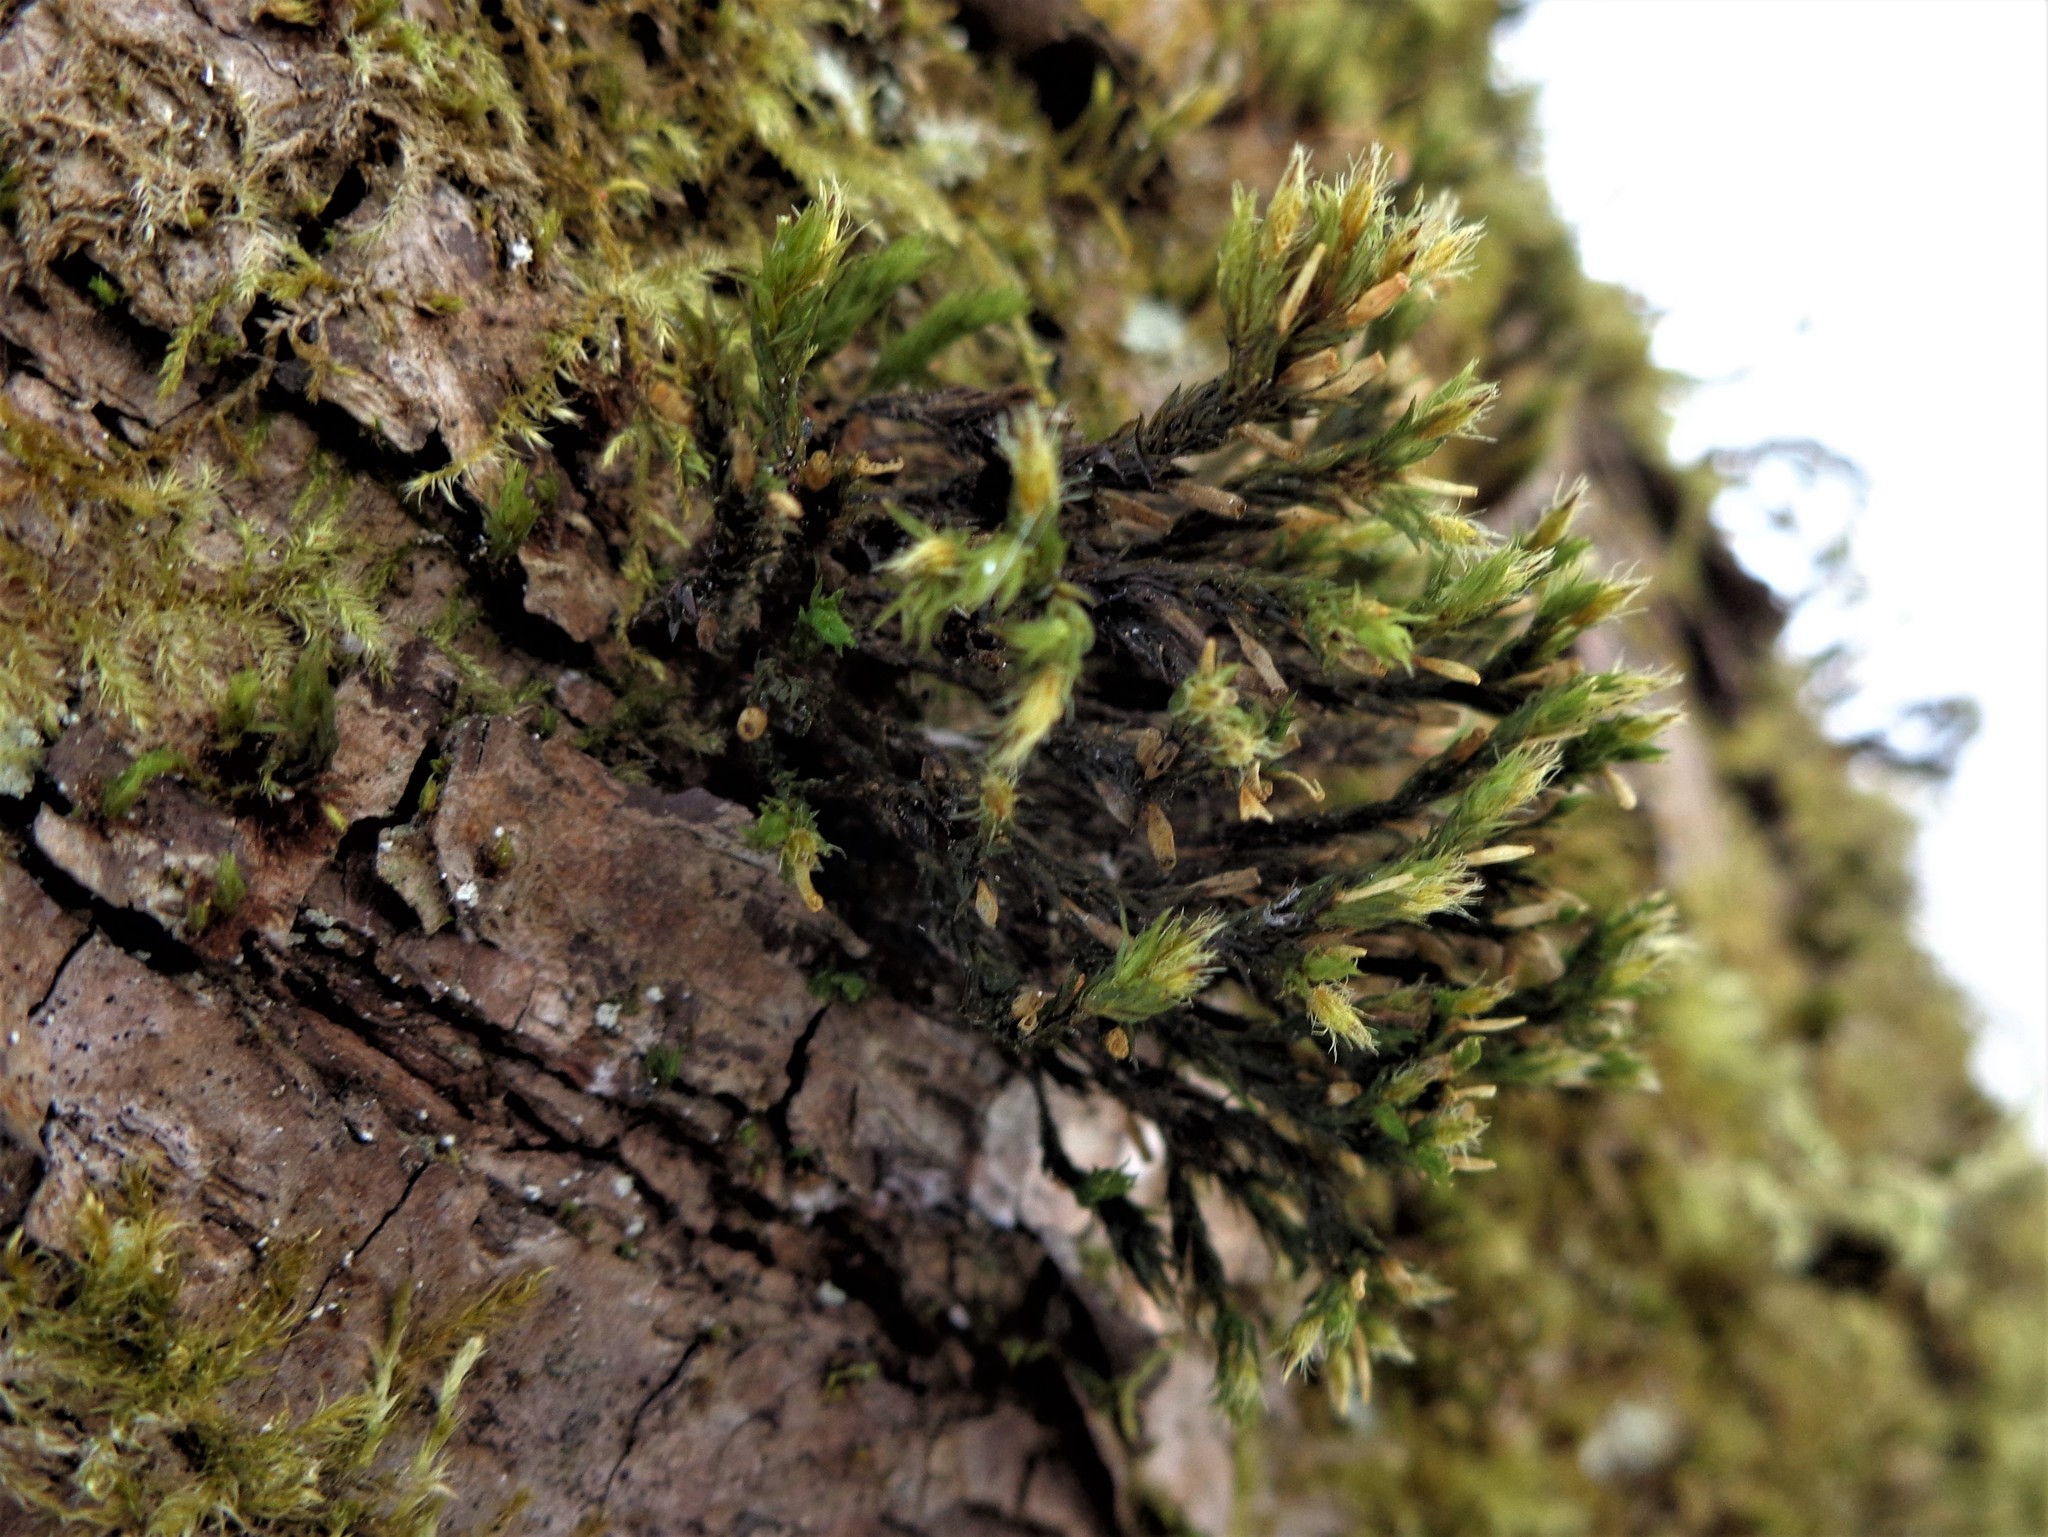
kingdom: Plantae
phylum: Bryophyta
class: Bryopsida
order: Orthotrichales
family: Orthotrichaceae
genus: Lewinskya
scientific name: Lewinskya speciosa
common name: Showy bristle moss
